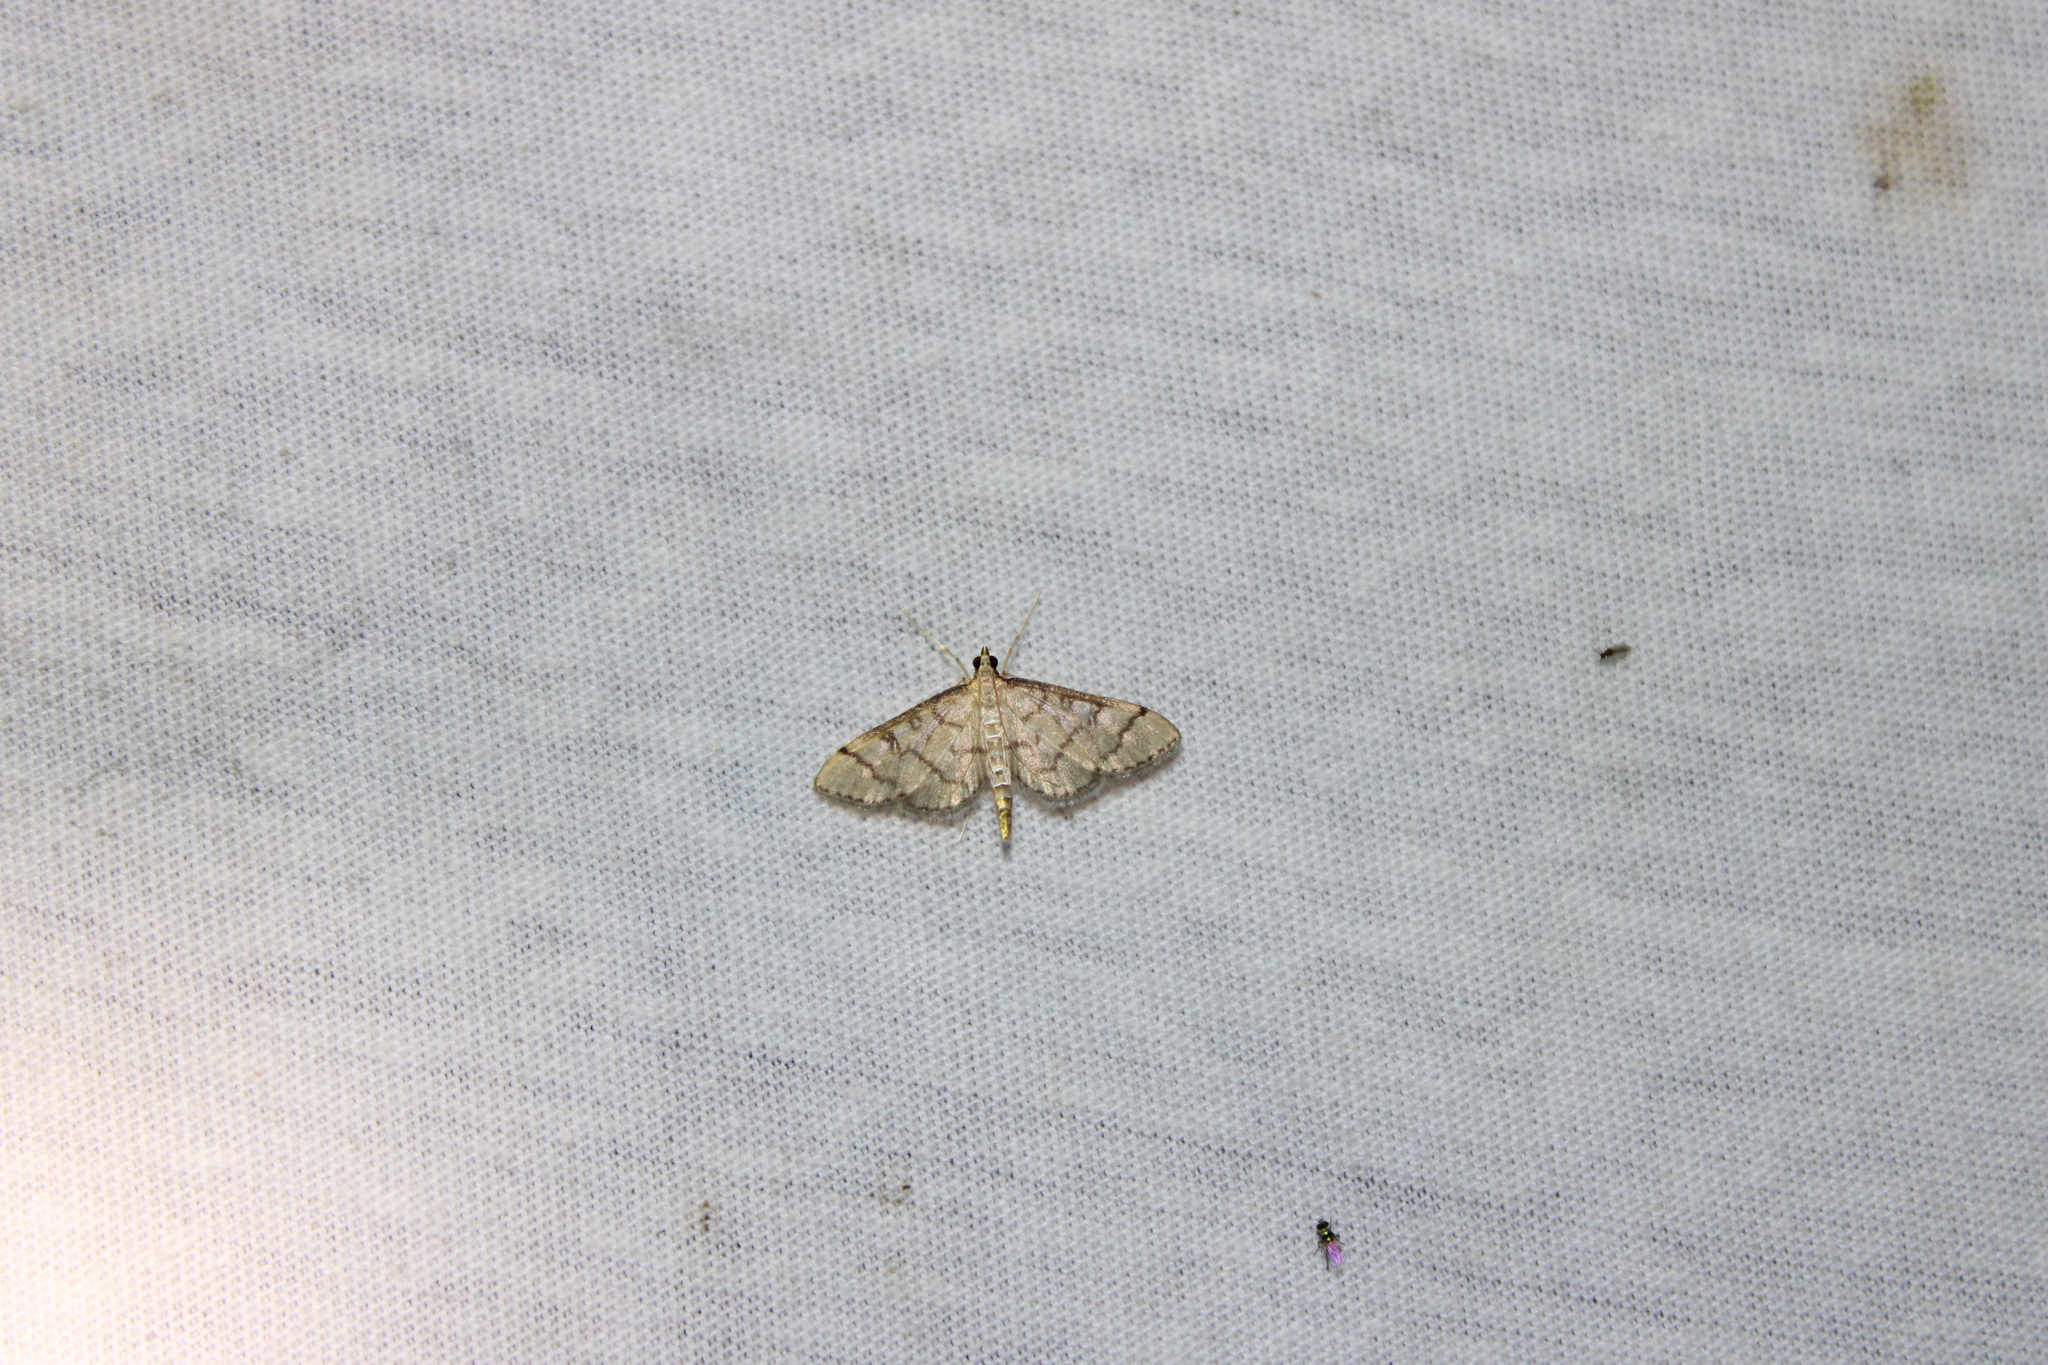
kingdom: Animalia
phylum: Arthropoda
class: Insecta
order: Lepidoptera
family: Crambidae
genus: Lamprosema
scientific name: Lamprosema Blepharomastix ranalis
